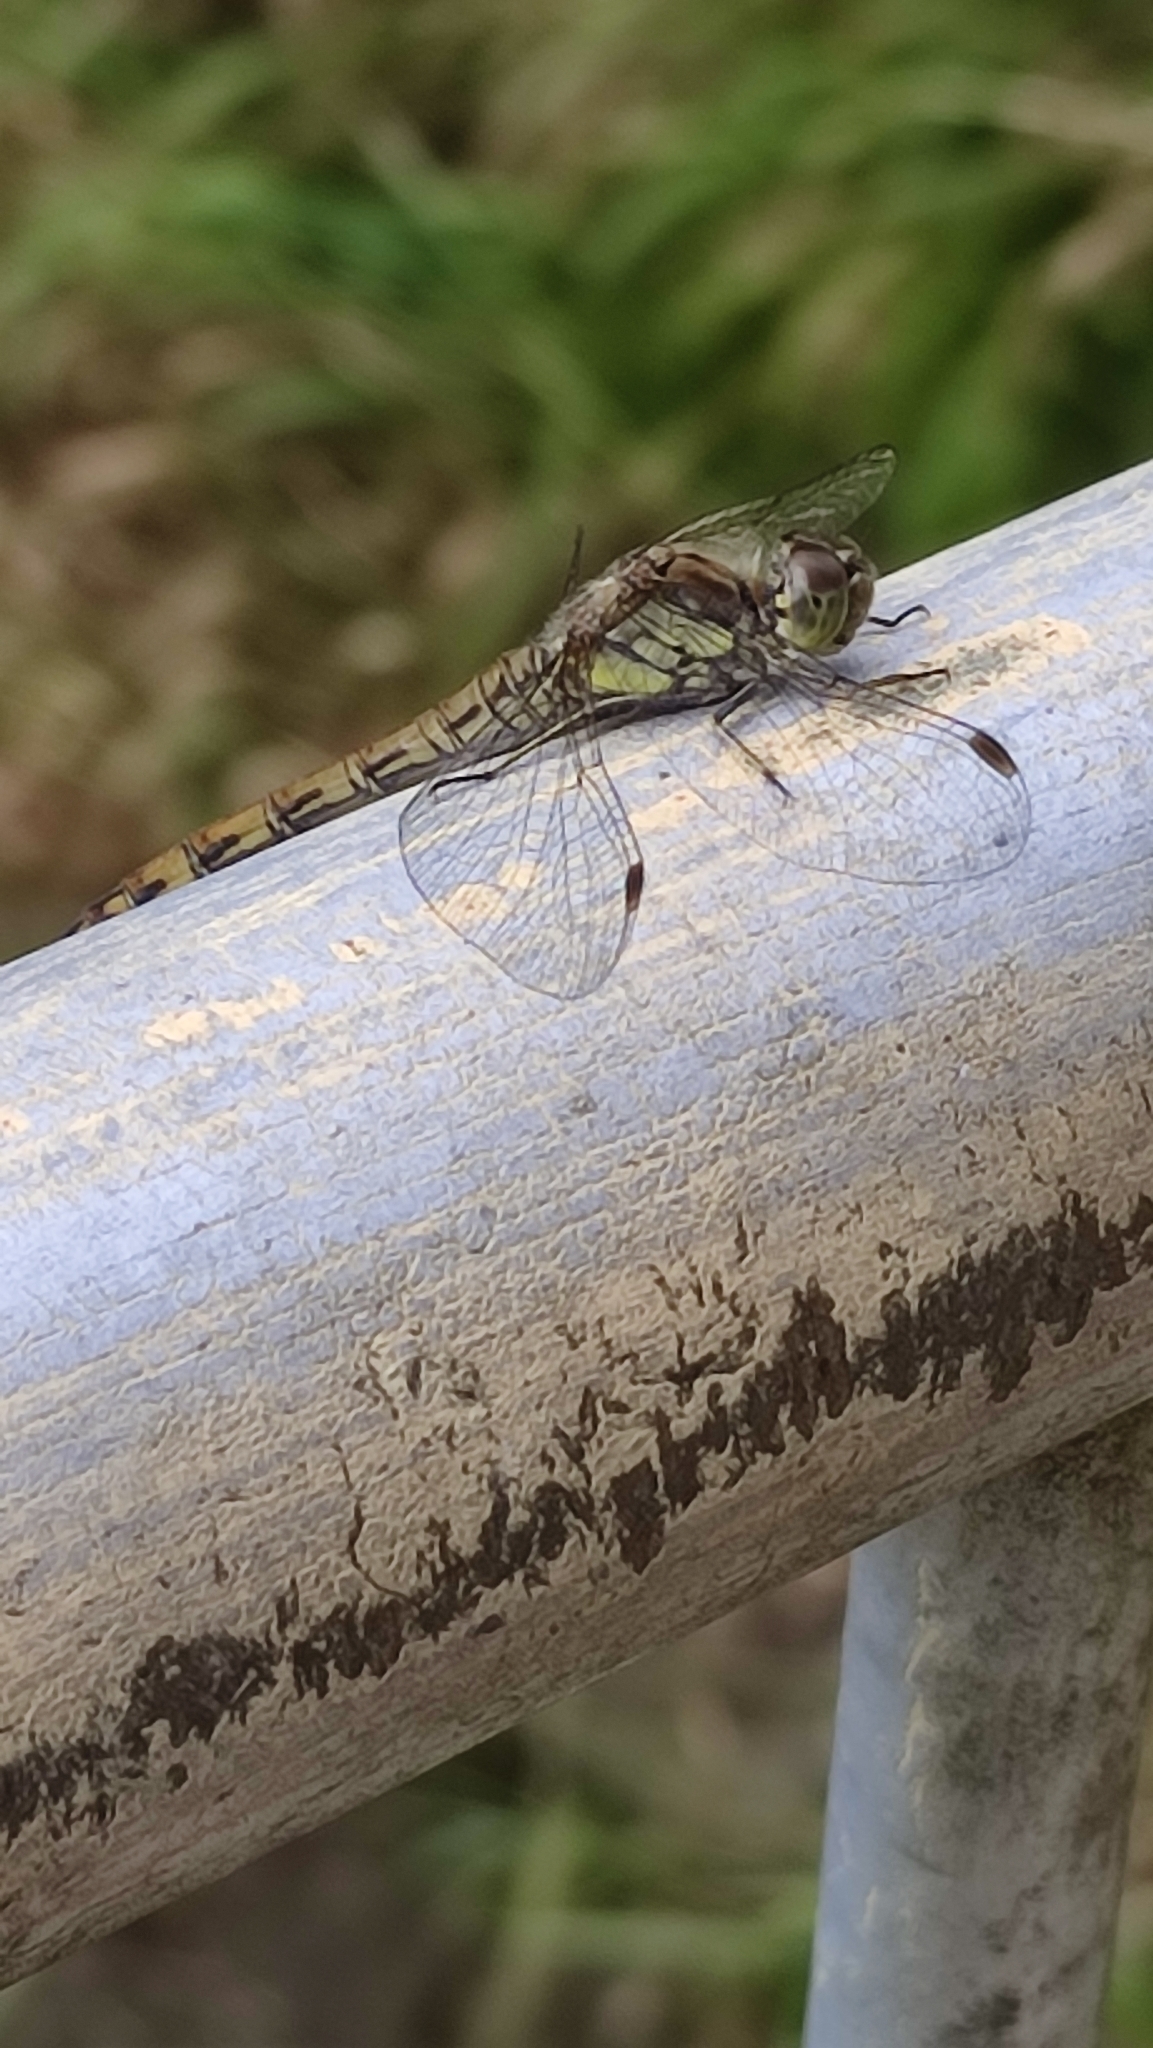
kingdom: Animalia
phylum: Arthropoda
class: Insecta
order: Odonata
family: Libellulidae
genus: Sympetrum
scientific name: Sympetrum striolatum
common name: Common darter
